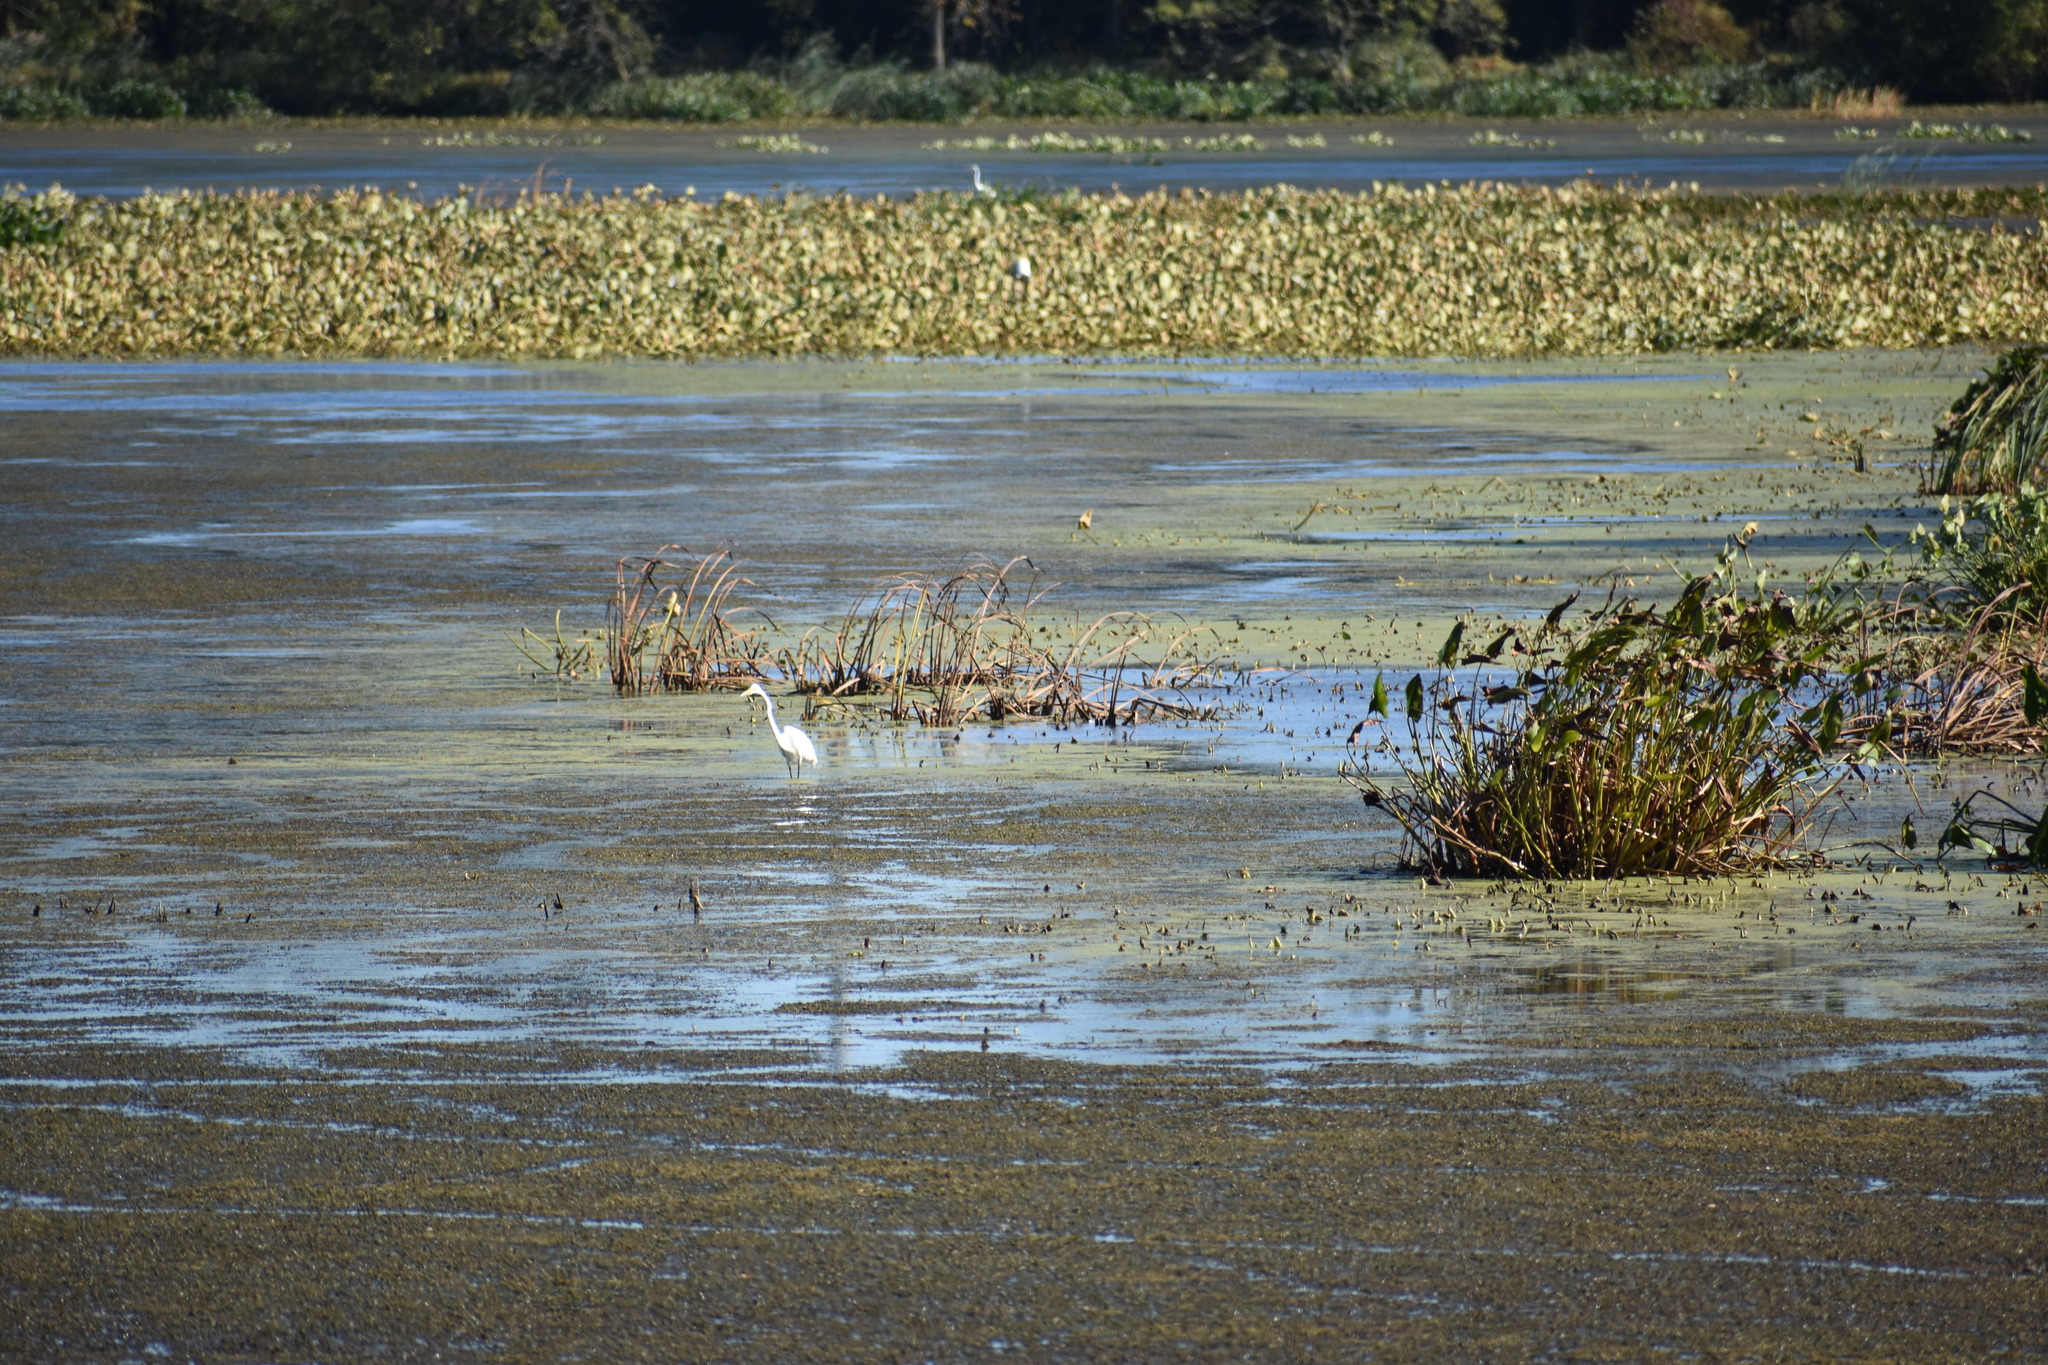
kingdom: Animalia
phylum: Chordata
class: Aves
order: Pelecaniformes
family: Ardeidae
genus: Ardea
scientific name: Ardea alba
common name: Great egret
